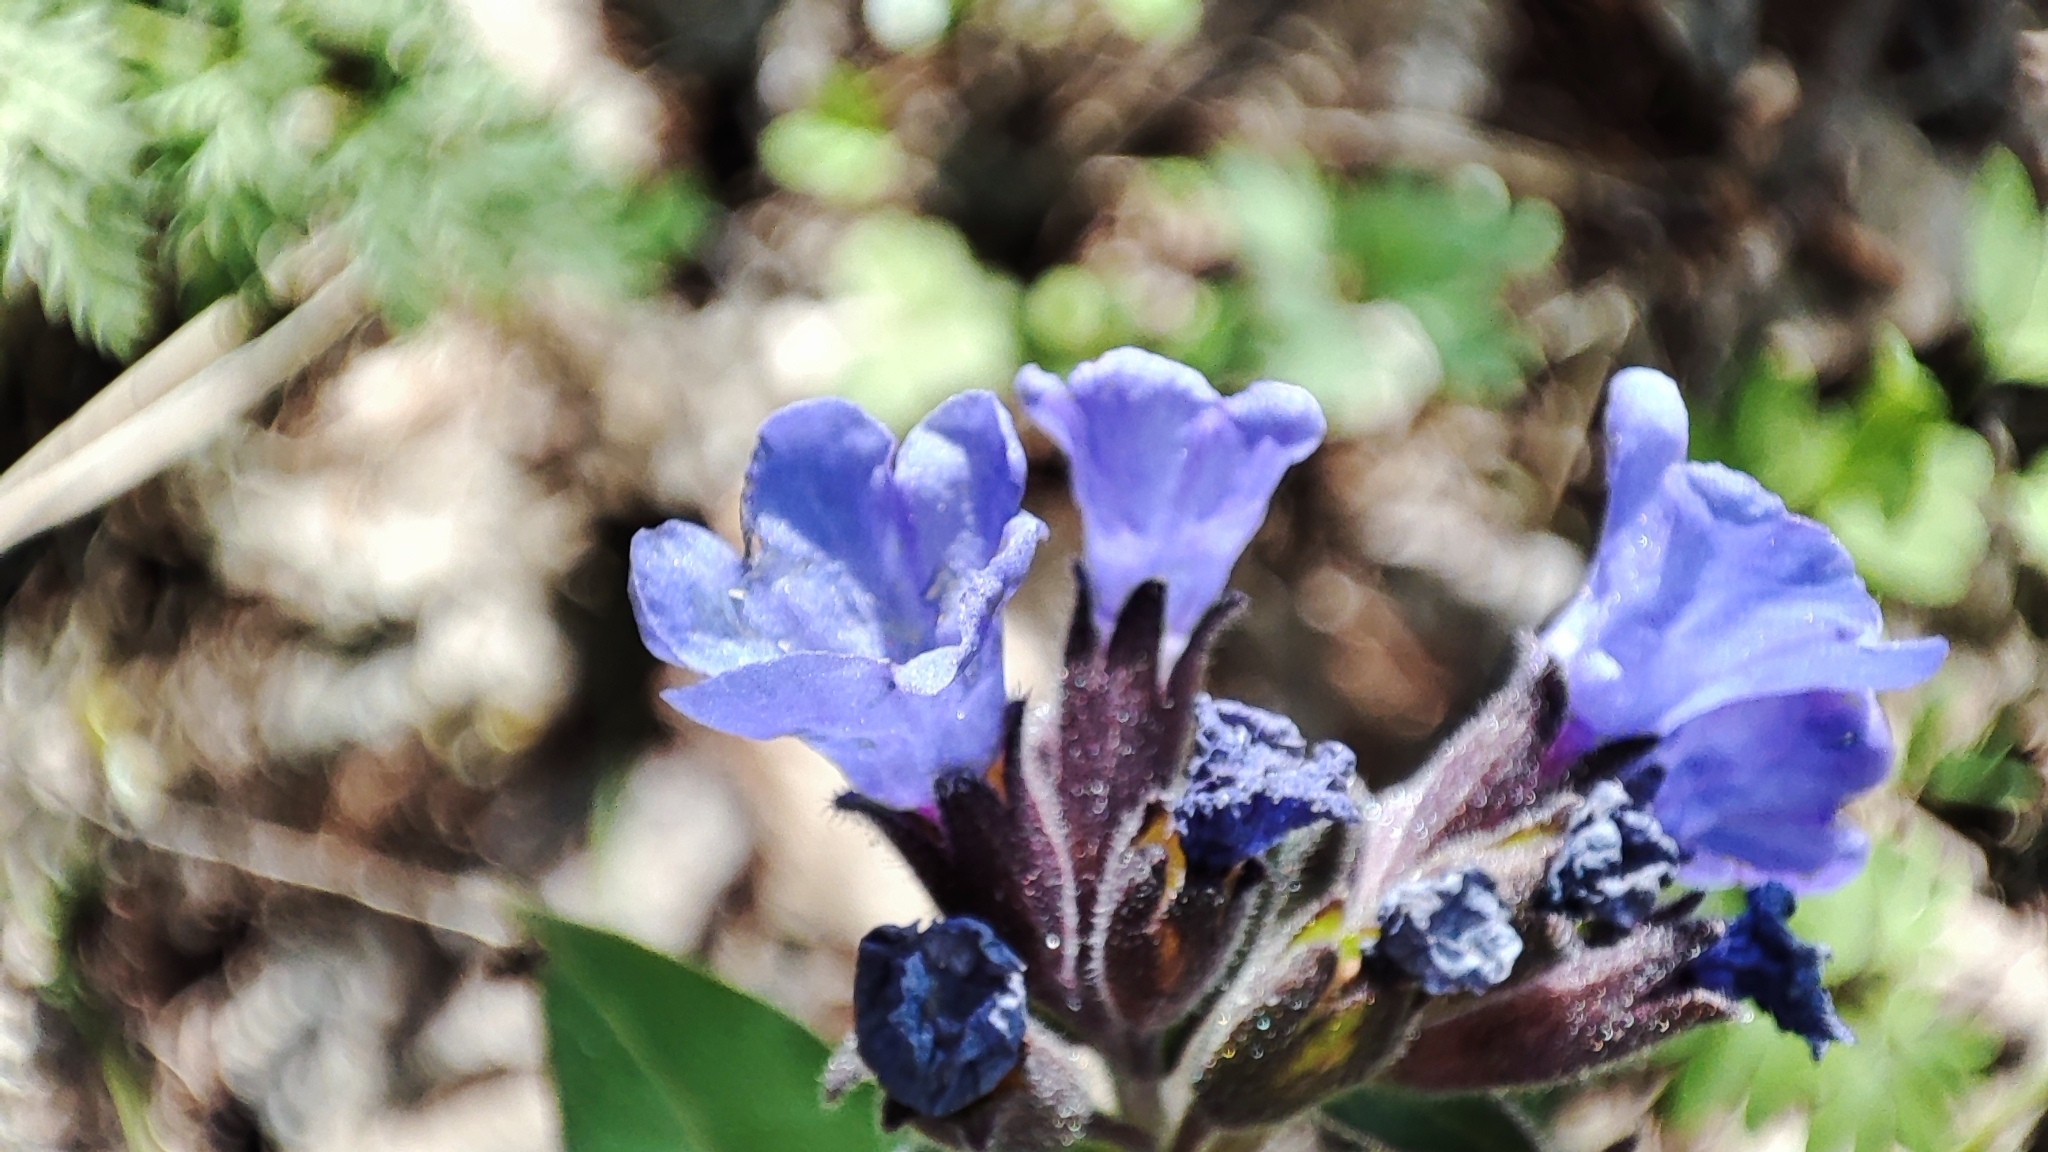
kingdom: Plantae
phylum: Tracheophyta
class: Magnoliopsida
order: Boraginales
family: Boraginaceae
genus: Pulmonaria
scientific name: Pulmonaria mollis
